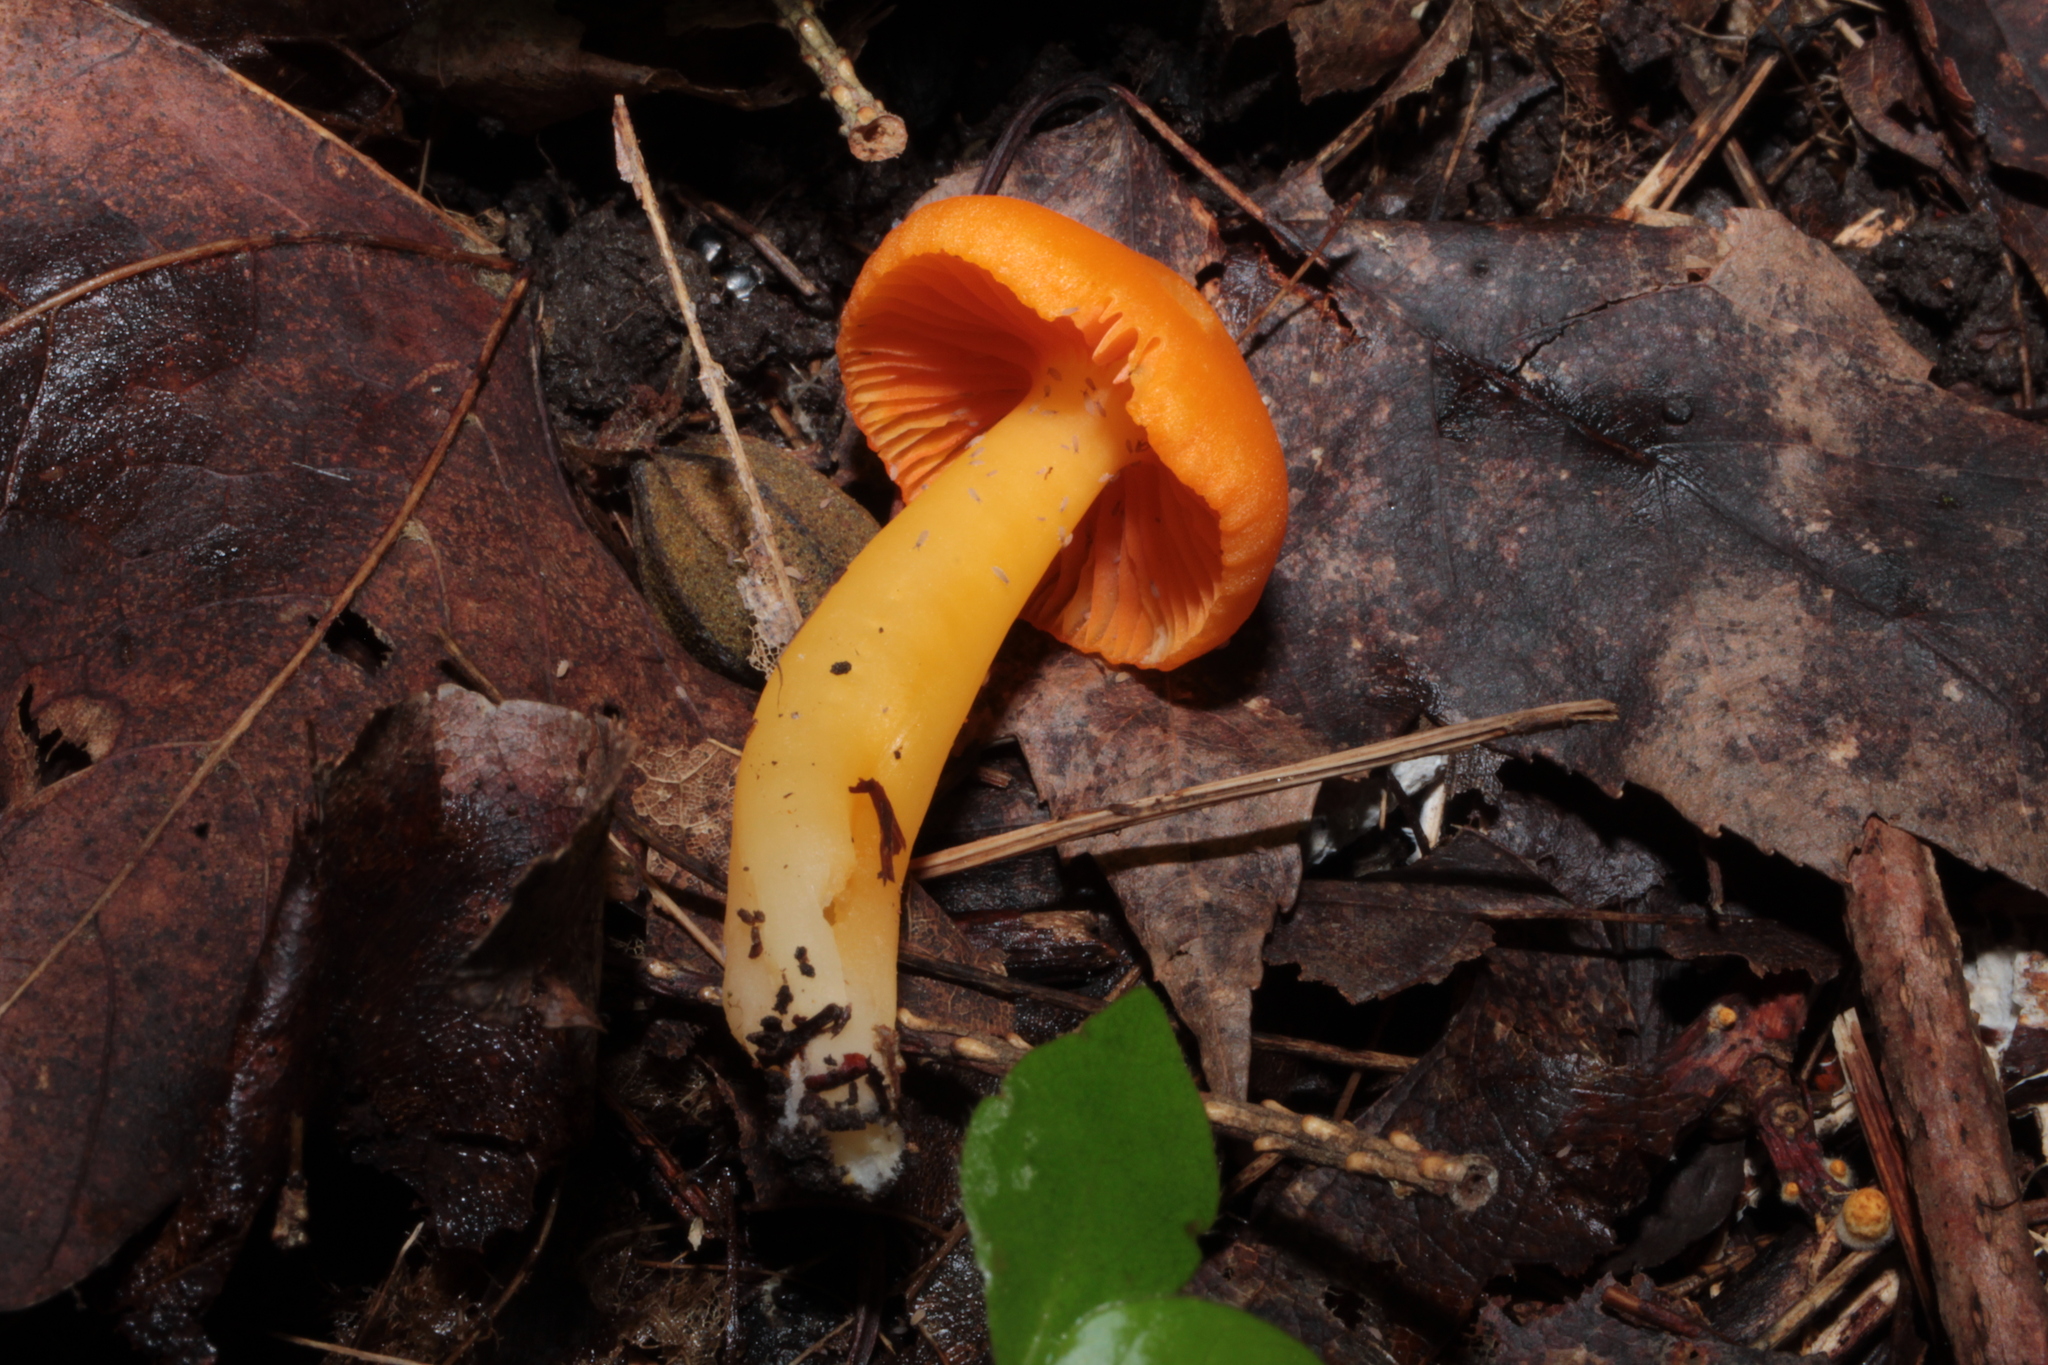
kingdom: Fungi
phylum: Basidiomycota
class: Agaricomycetes
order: Agaricales
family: Hygrophoraceae
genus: Humidicutis
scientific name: Humidicutis marginata
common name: Orange gilled waxcap
